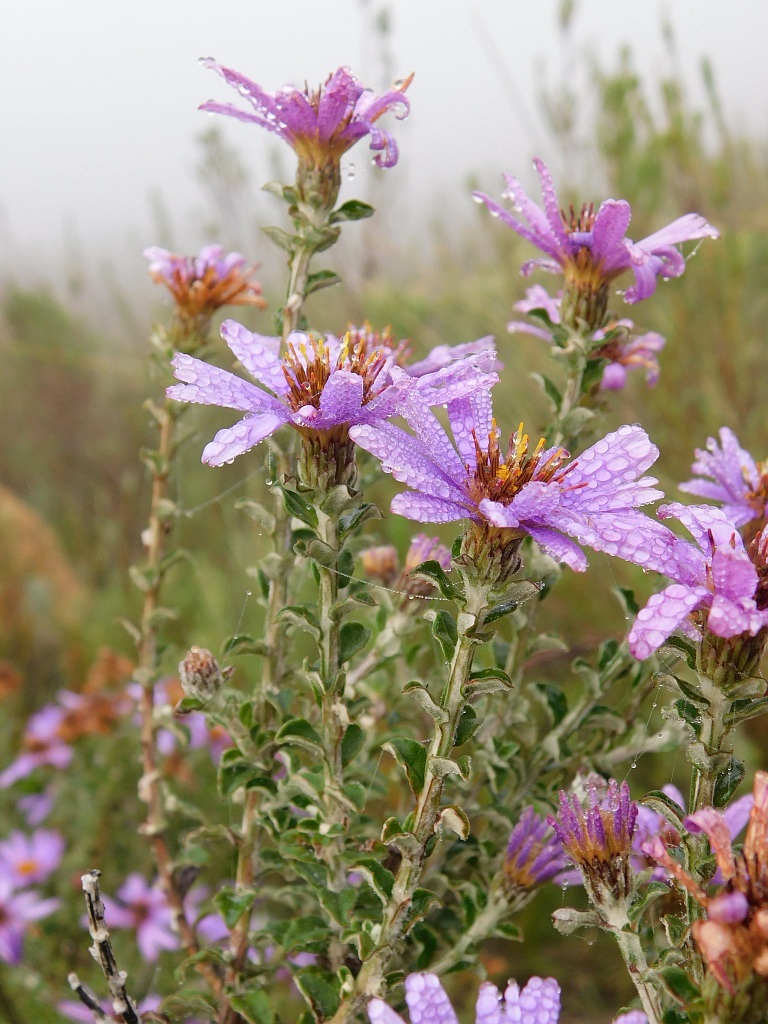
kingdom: Plantae
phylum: Tracheophyta
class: Magnoliopsida
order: Asterales
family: Asteraceae
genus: Printzia
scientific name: Printzia polifolia
